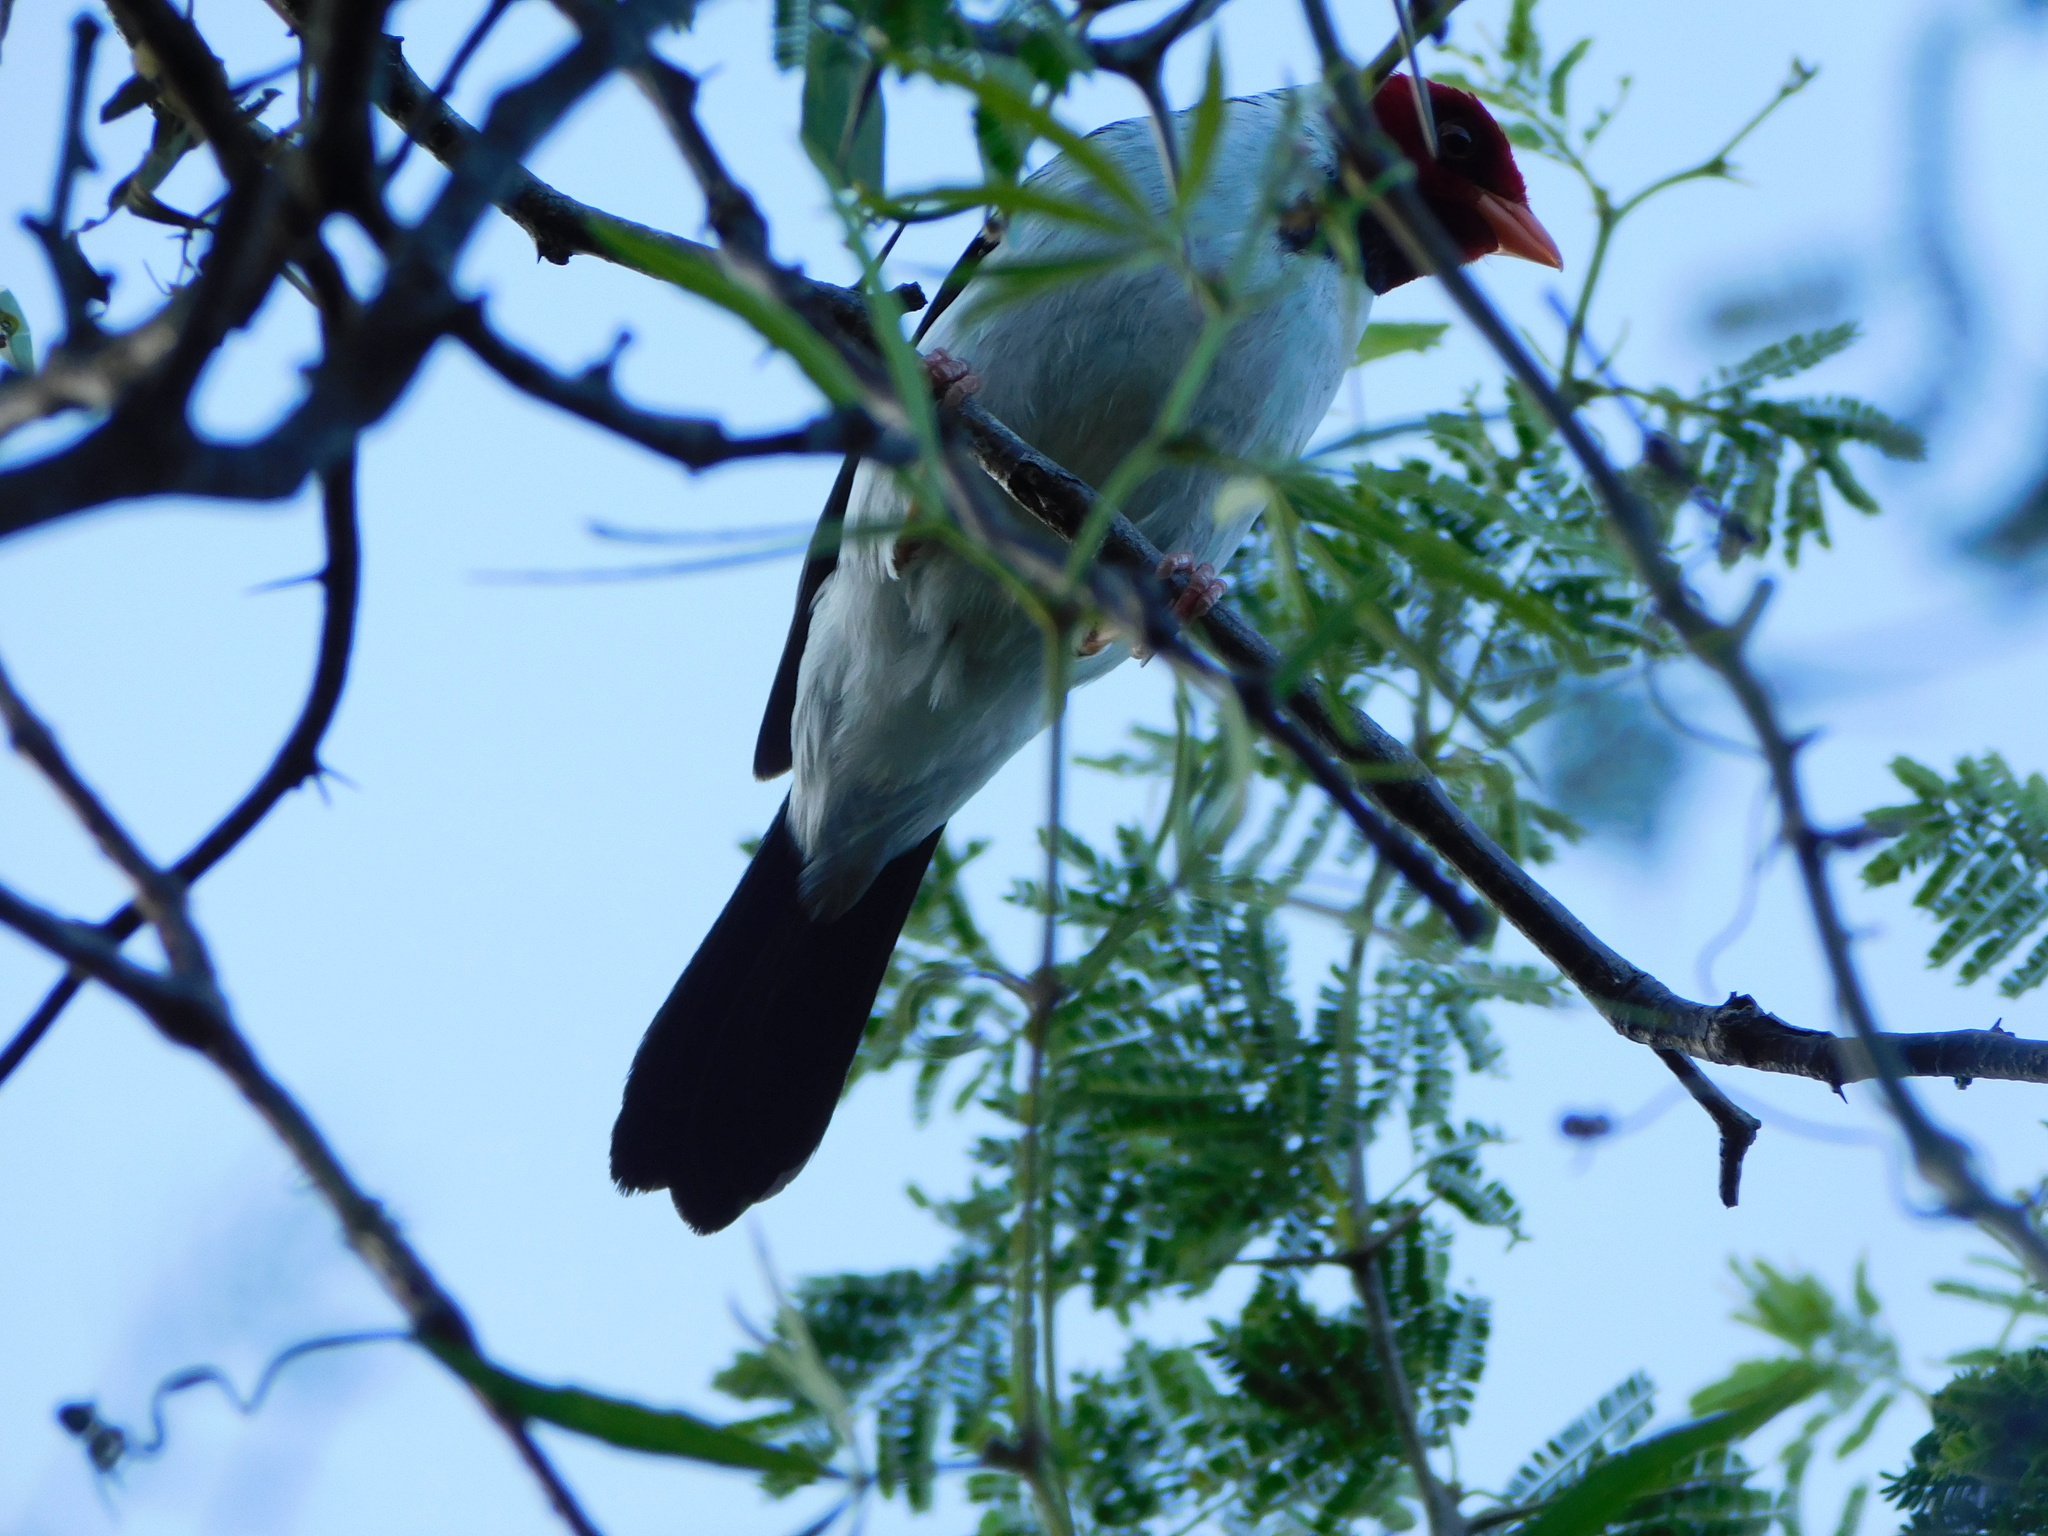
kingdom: Animalia
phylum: Chordata
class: Aves
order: Passeriformes
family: Thraupidae
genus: Paroaria
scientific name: Paroaria capitata
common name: Yellow-billed cardinal
